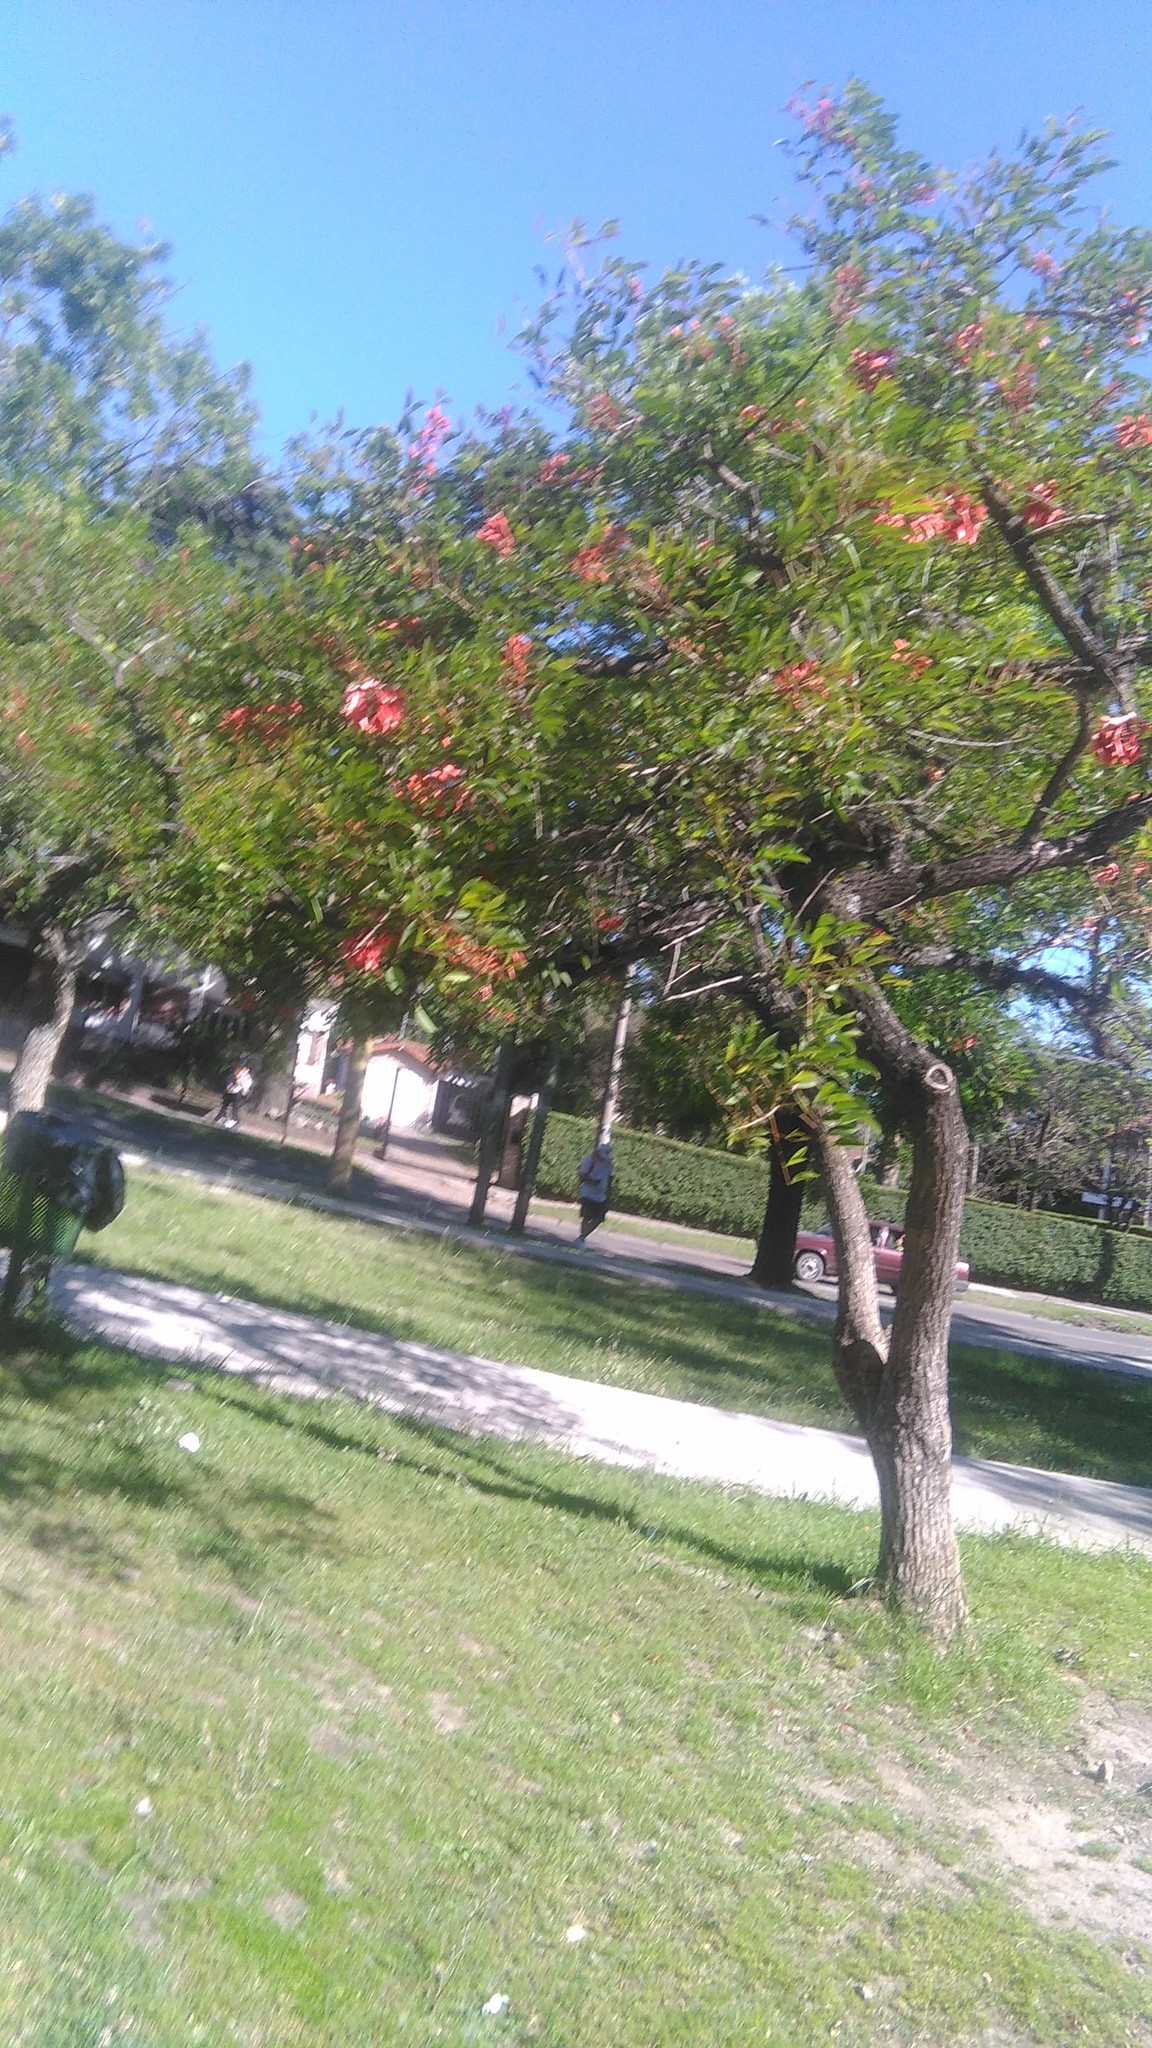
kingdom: Plantae
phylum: Tracheophyta
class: Magnoliopsida
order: Fabales
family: Fabaceae
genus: Erythrina
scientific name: Erythrina crista-galli
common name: Cockspur coral tree
